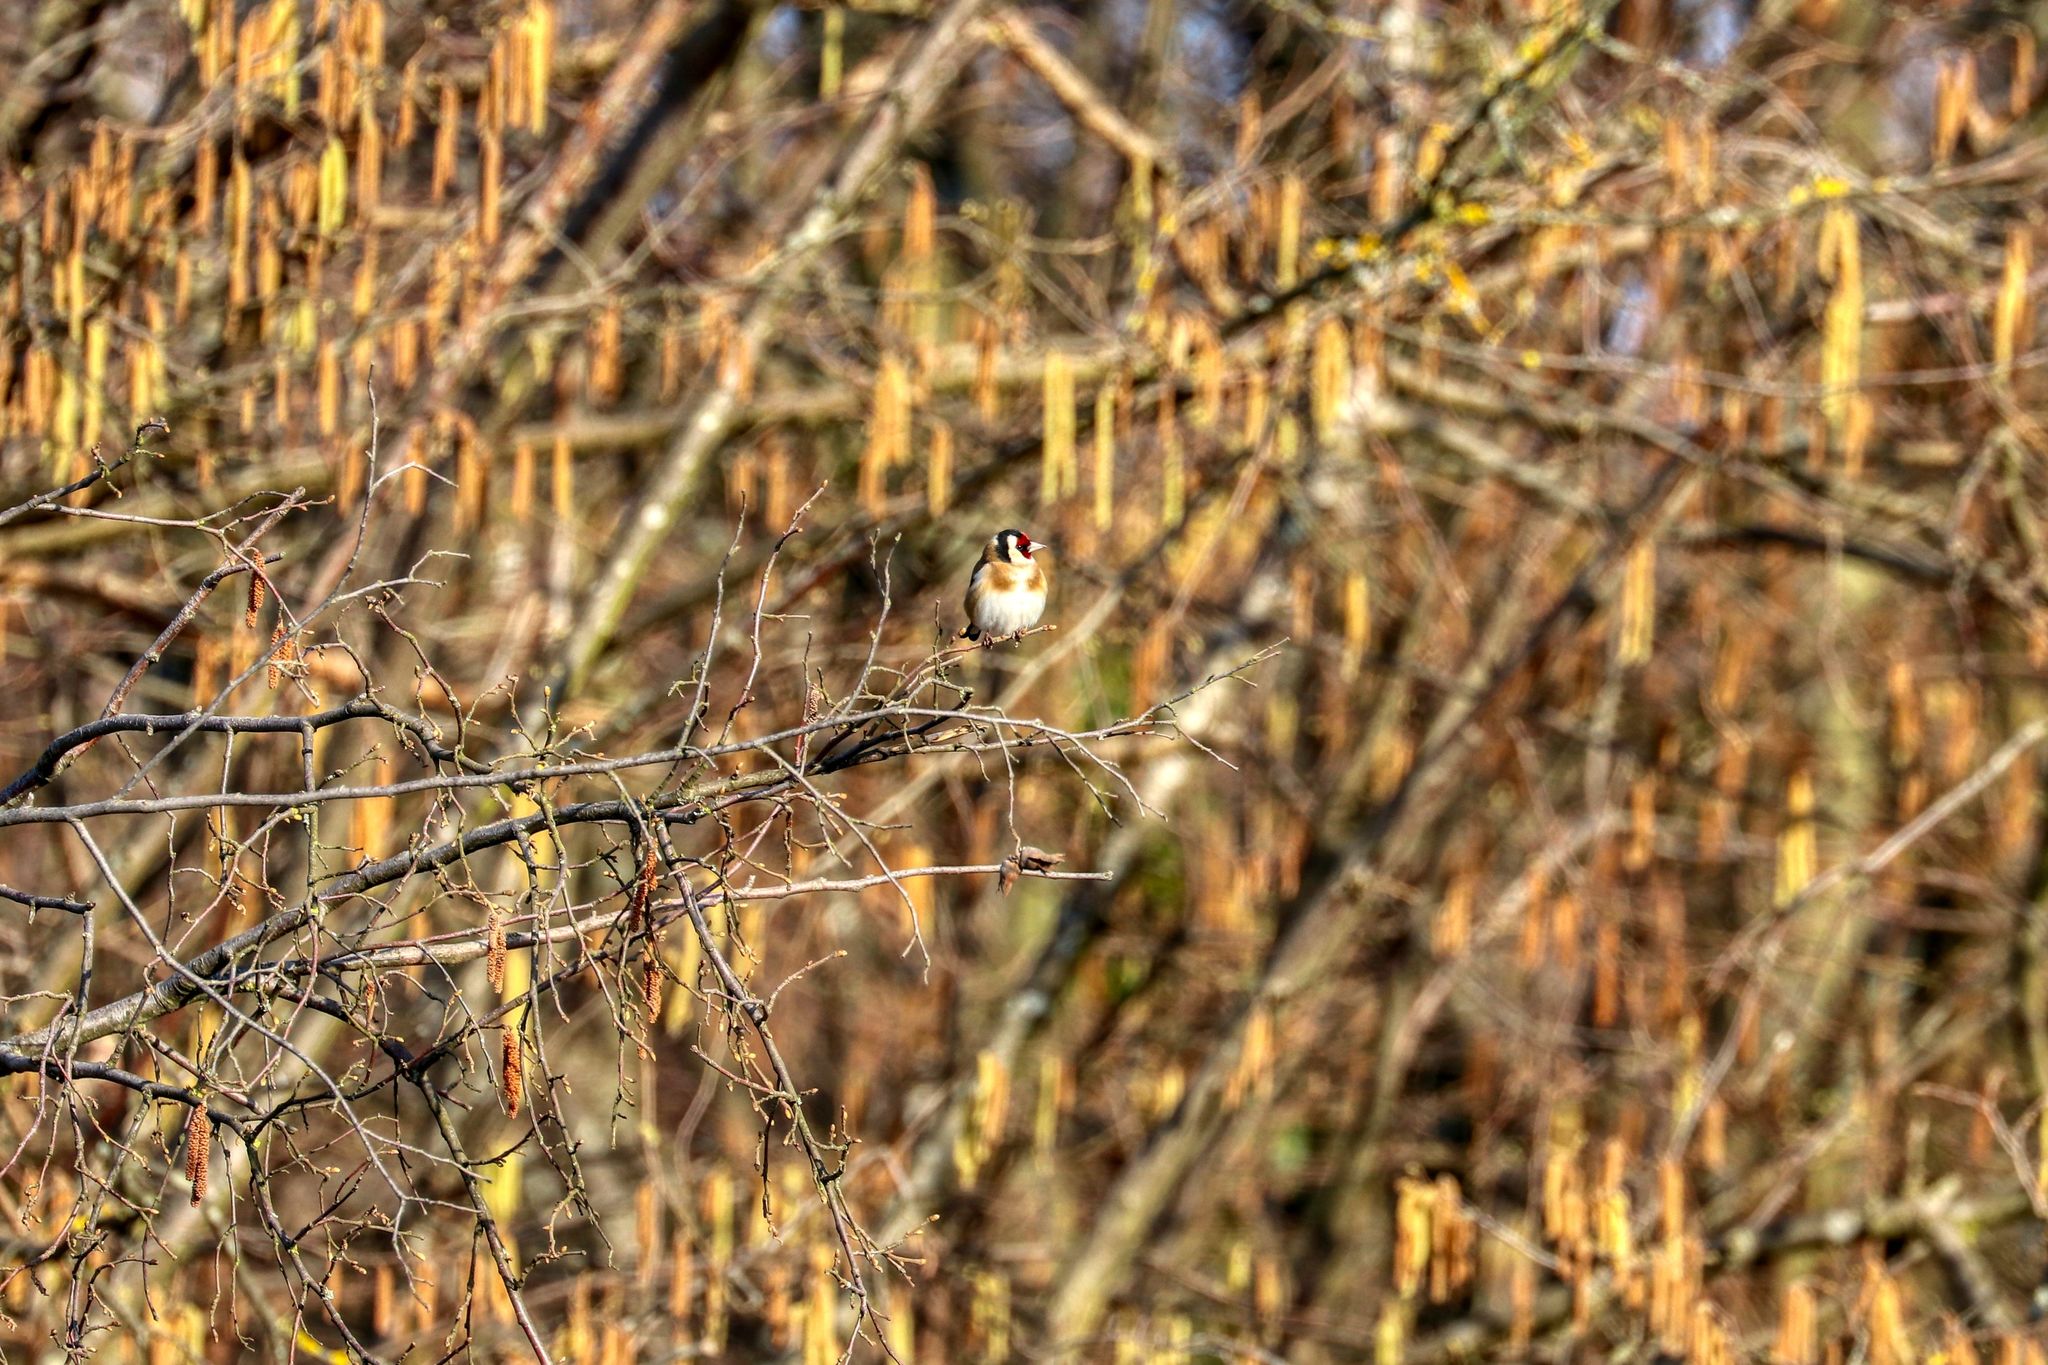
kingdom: Animalia
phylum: Chordata
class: Aves
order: Passeriformes
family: Fringillidae
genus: Carduelis
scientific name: Carduelis carduelis
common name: European goldfinch
